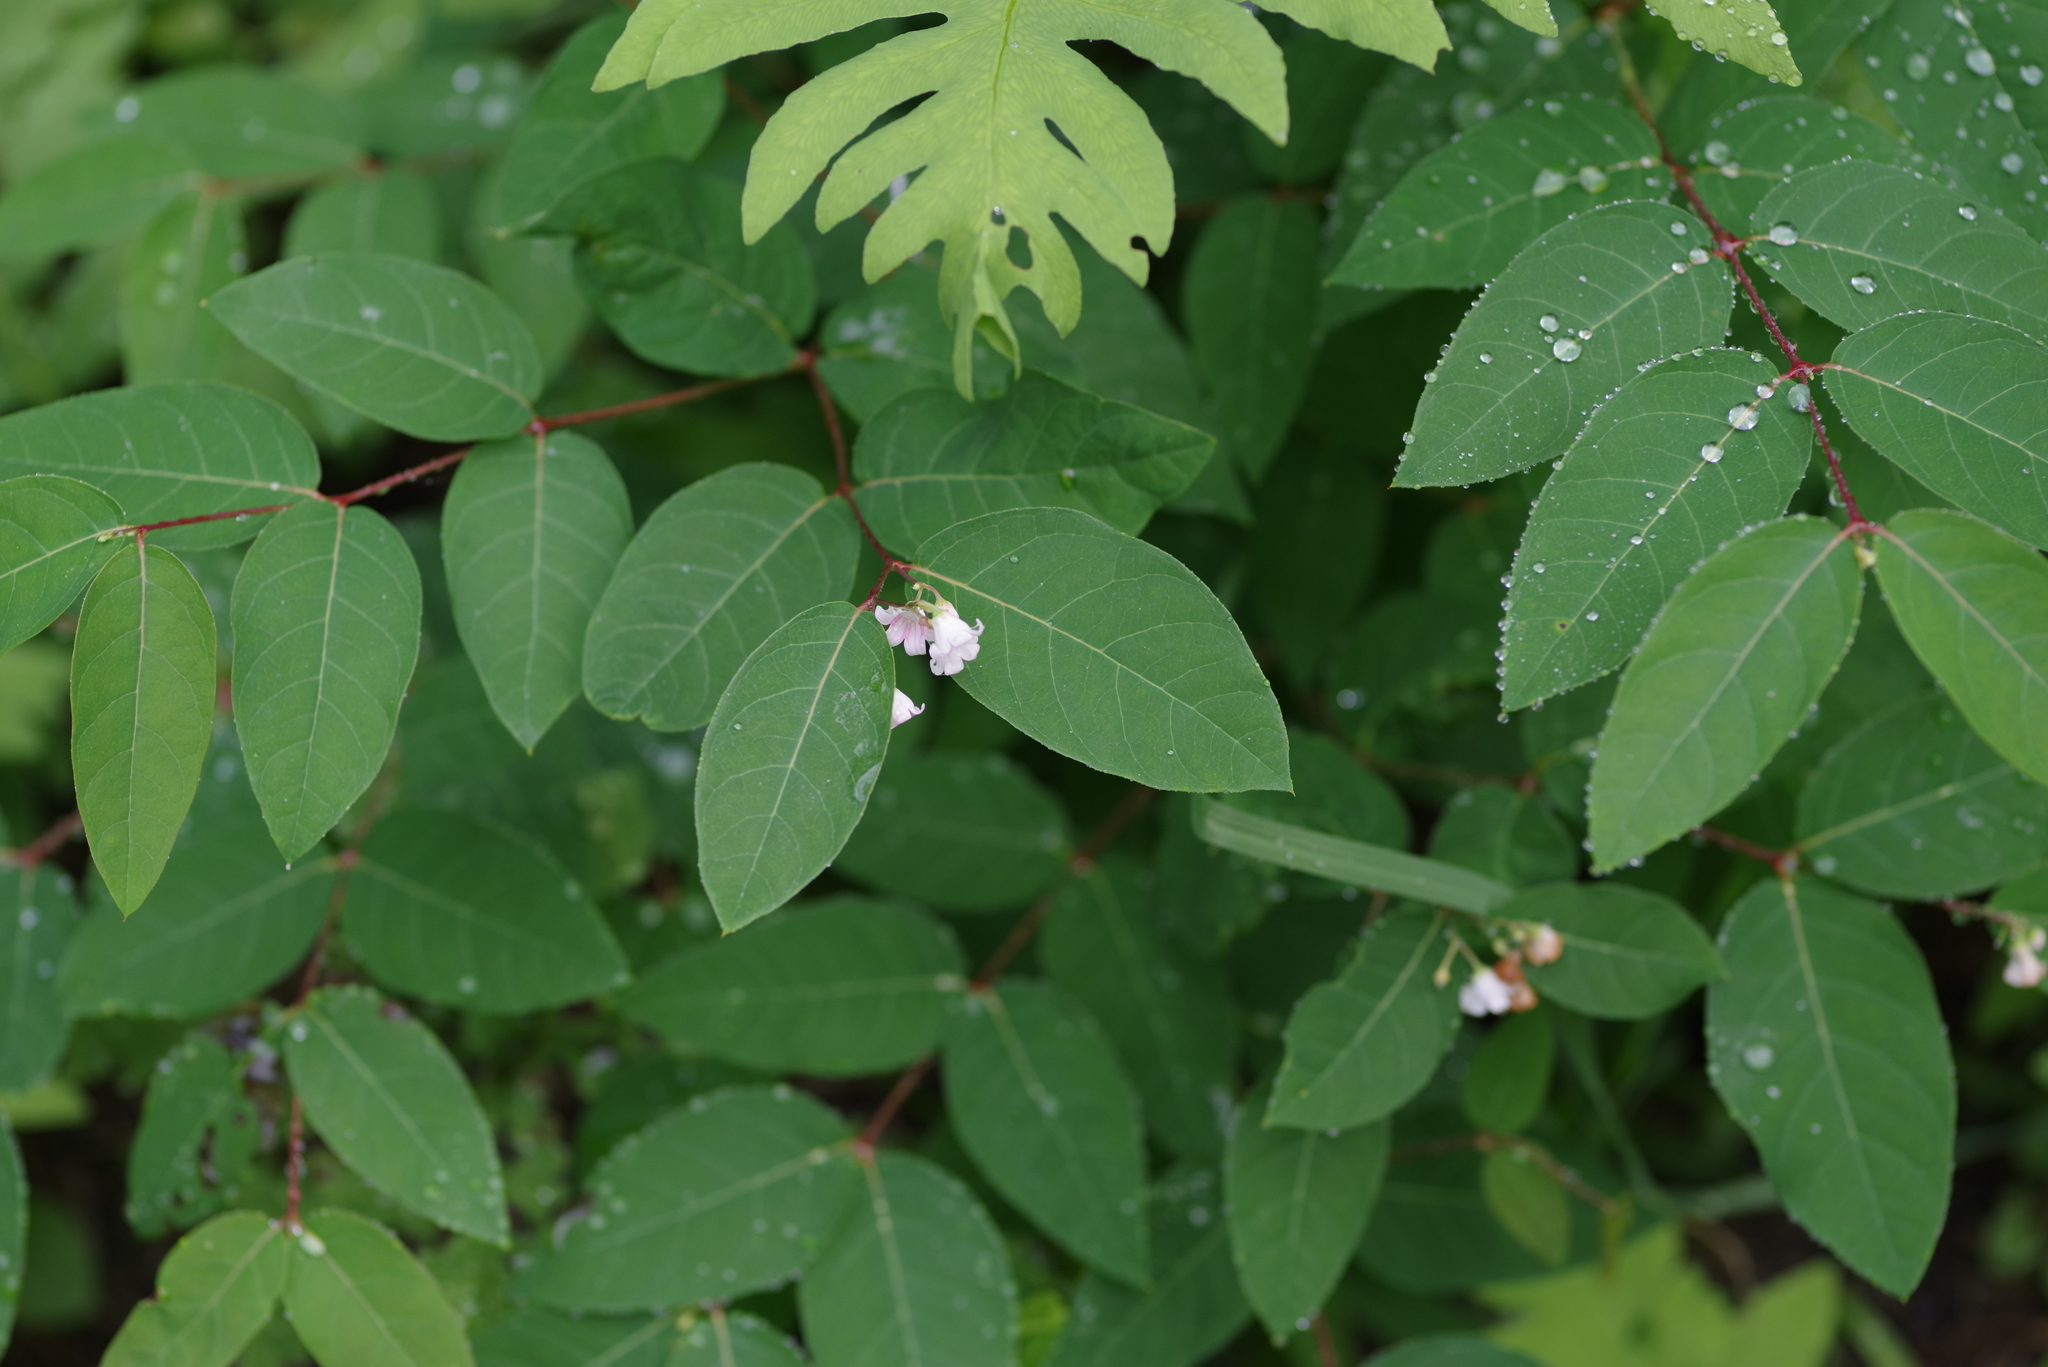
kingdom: Plantae
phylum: Tracheophyta
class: Magnoliopsida
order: Gentianales
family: Apocynaceae
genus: Apocynum
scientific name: Apocynum androsaemifolium
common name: Spreading dogbane
